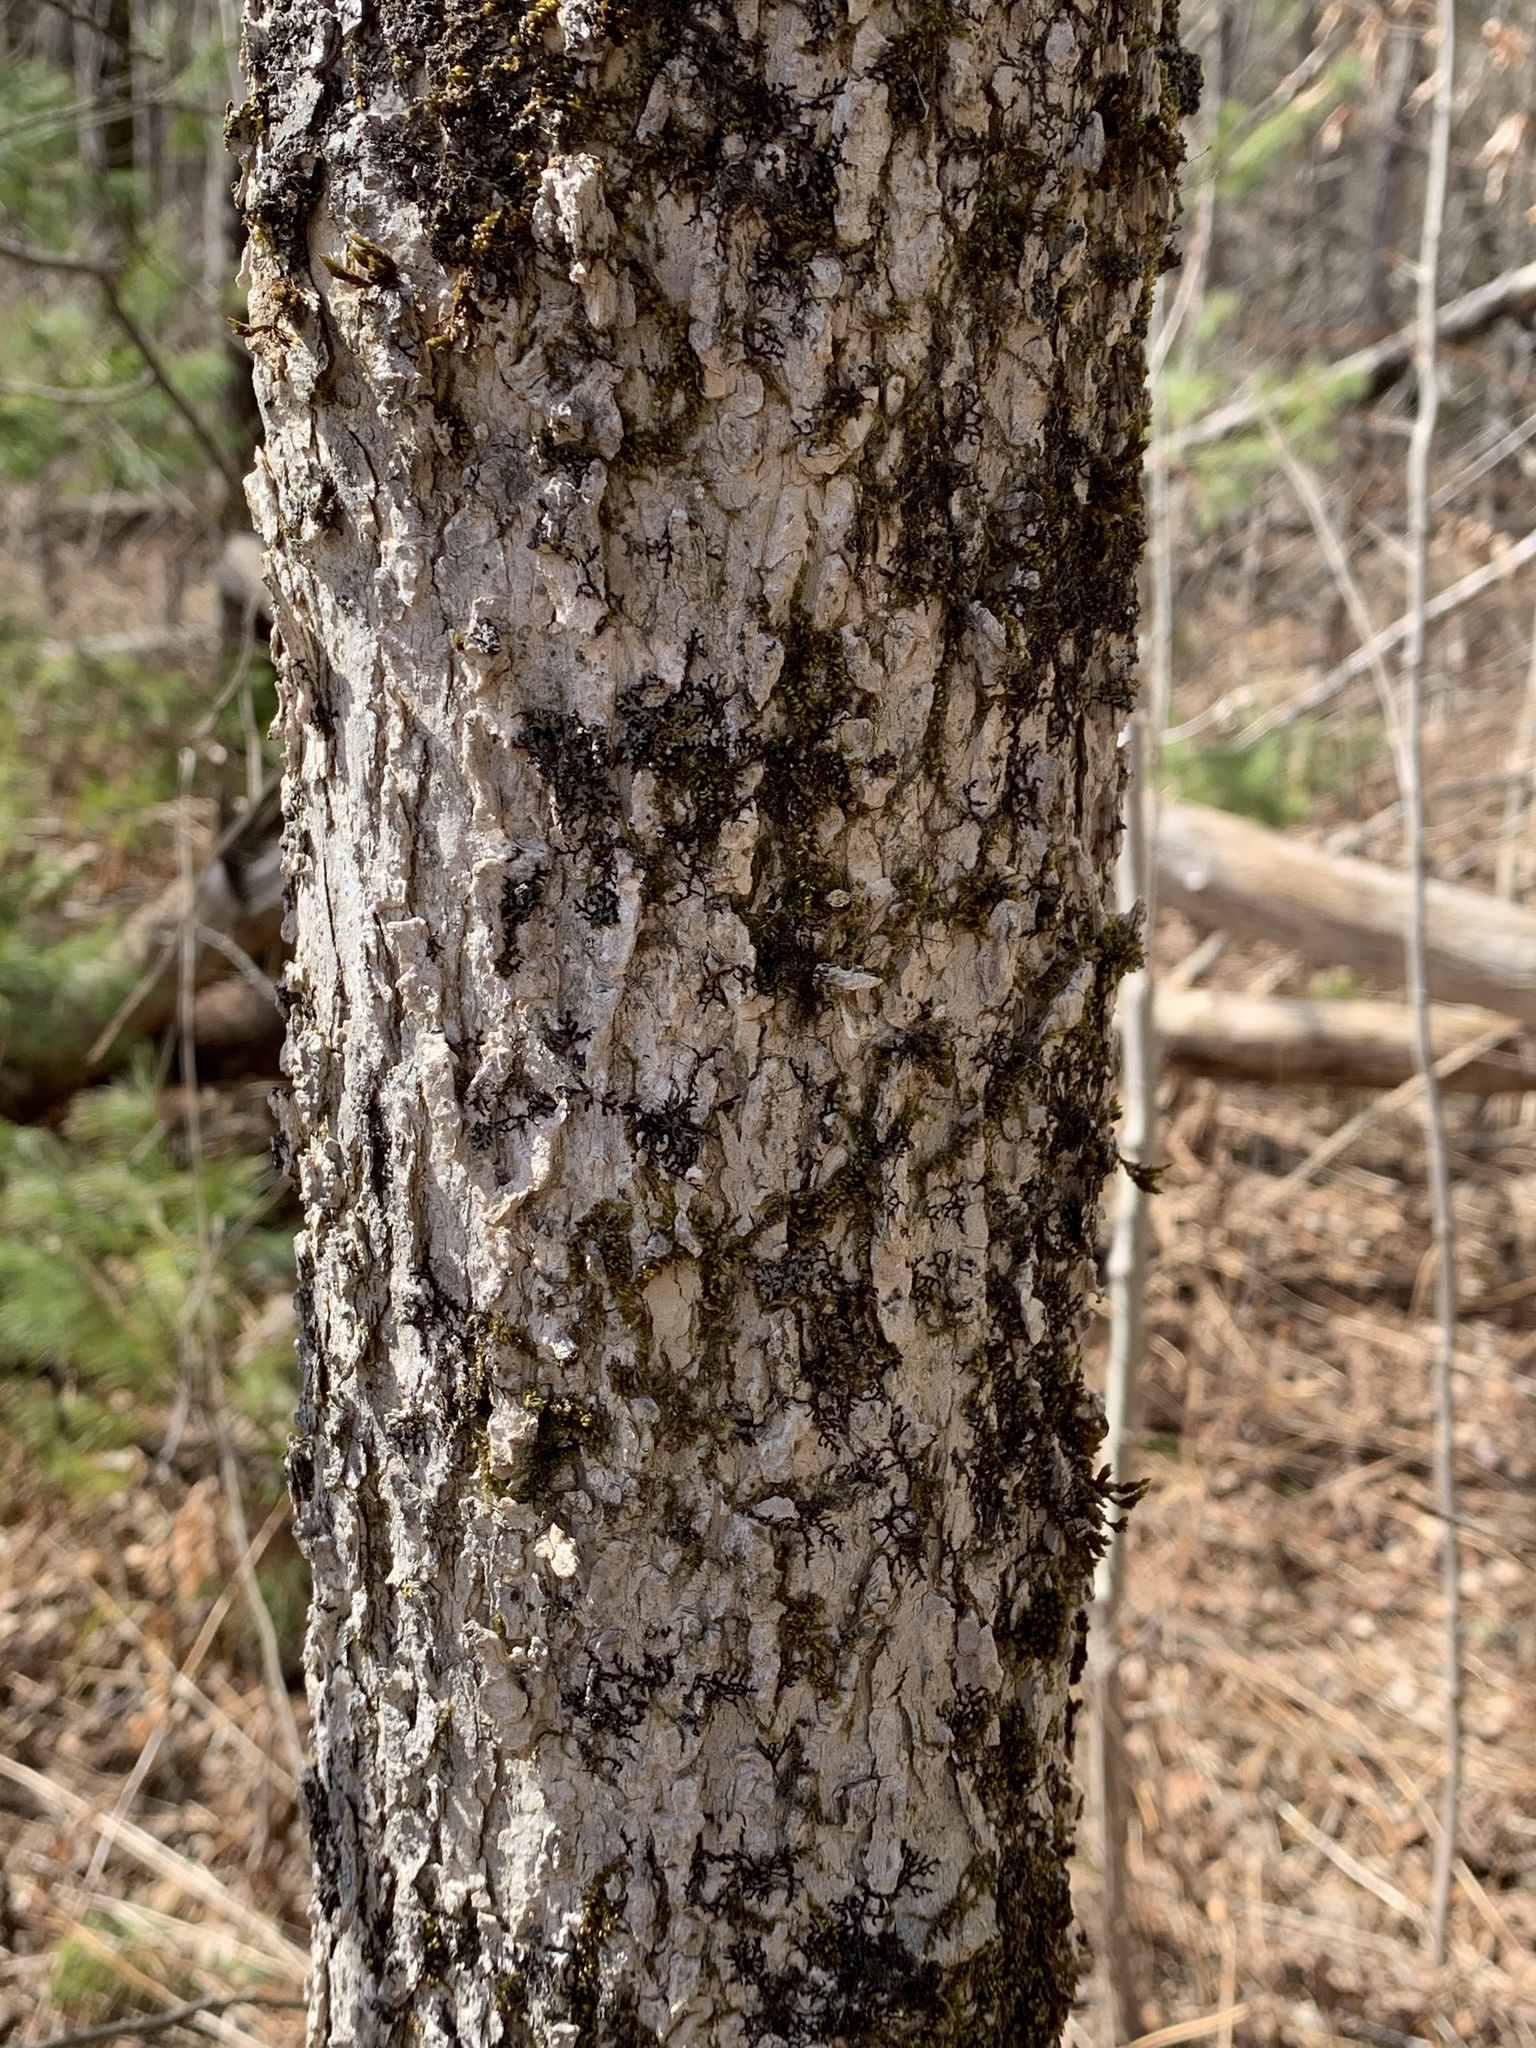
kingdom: Plantae
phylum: Tracheophyta
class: Magnoliopsida
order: Lamiales
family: Oleaceae
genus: Fraxinus
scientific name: Fraxinus nigra
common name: Black ash
